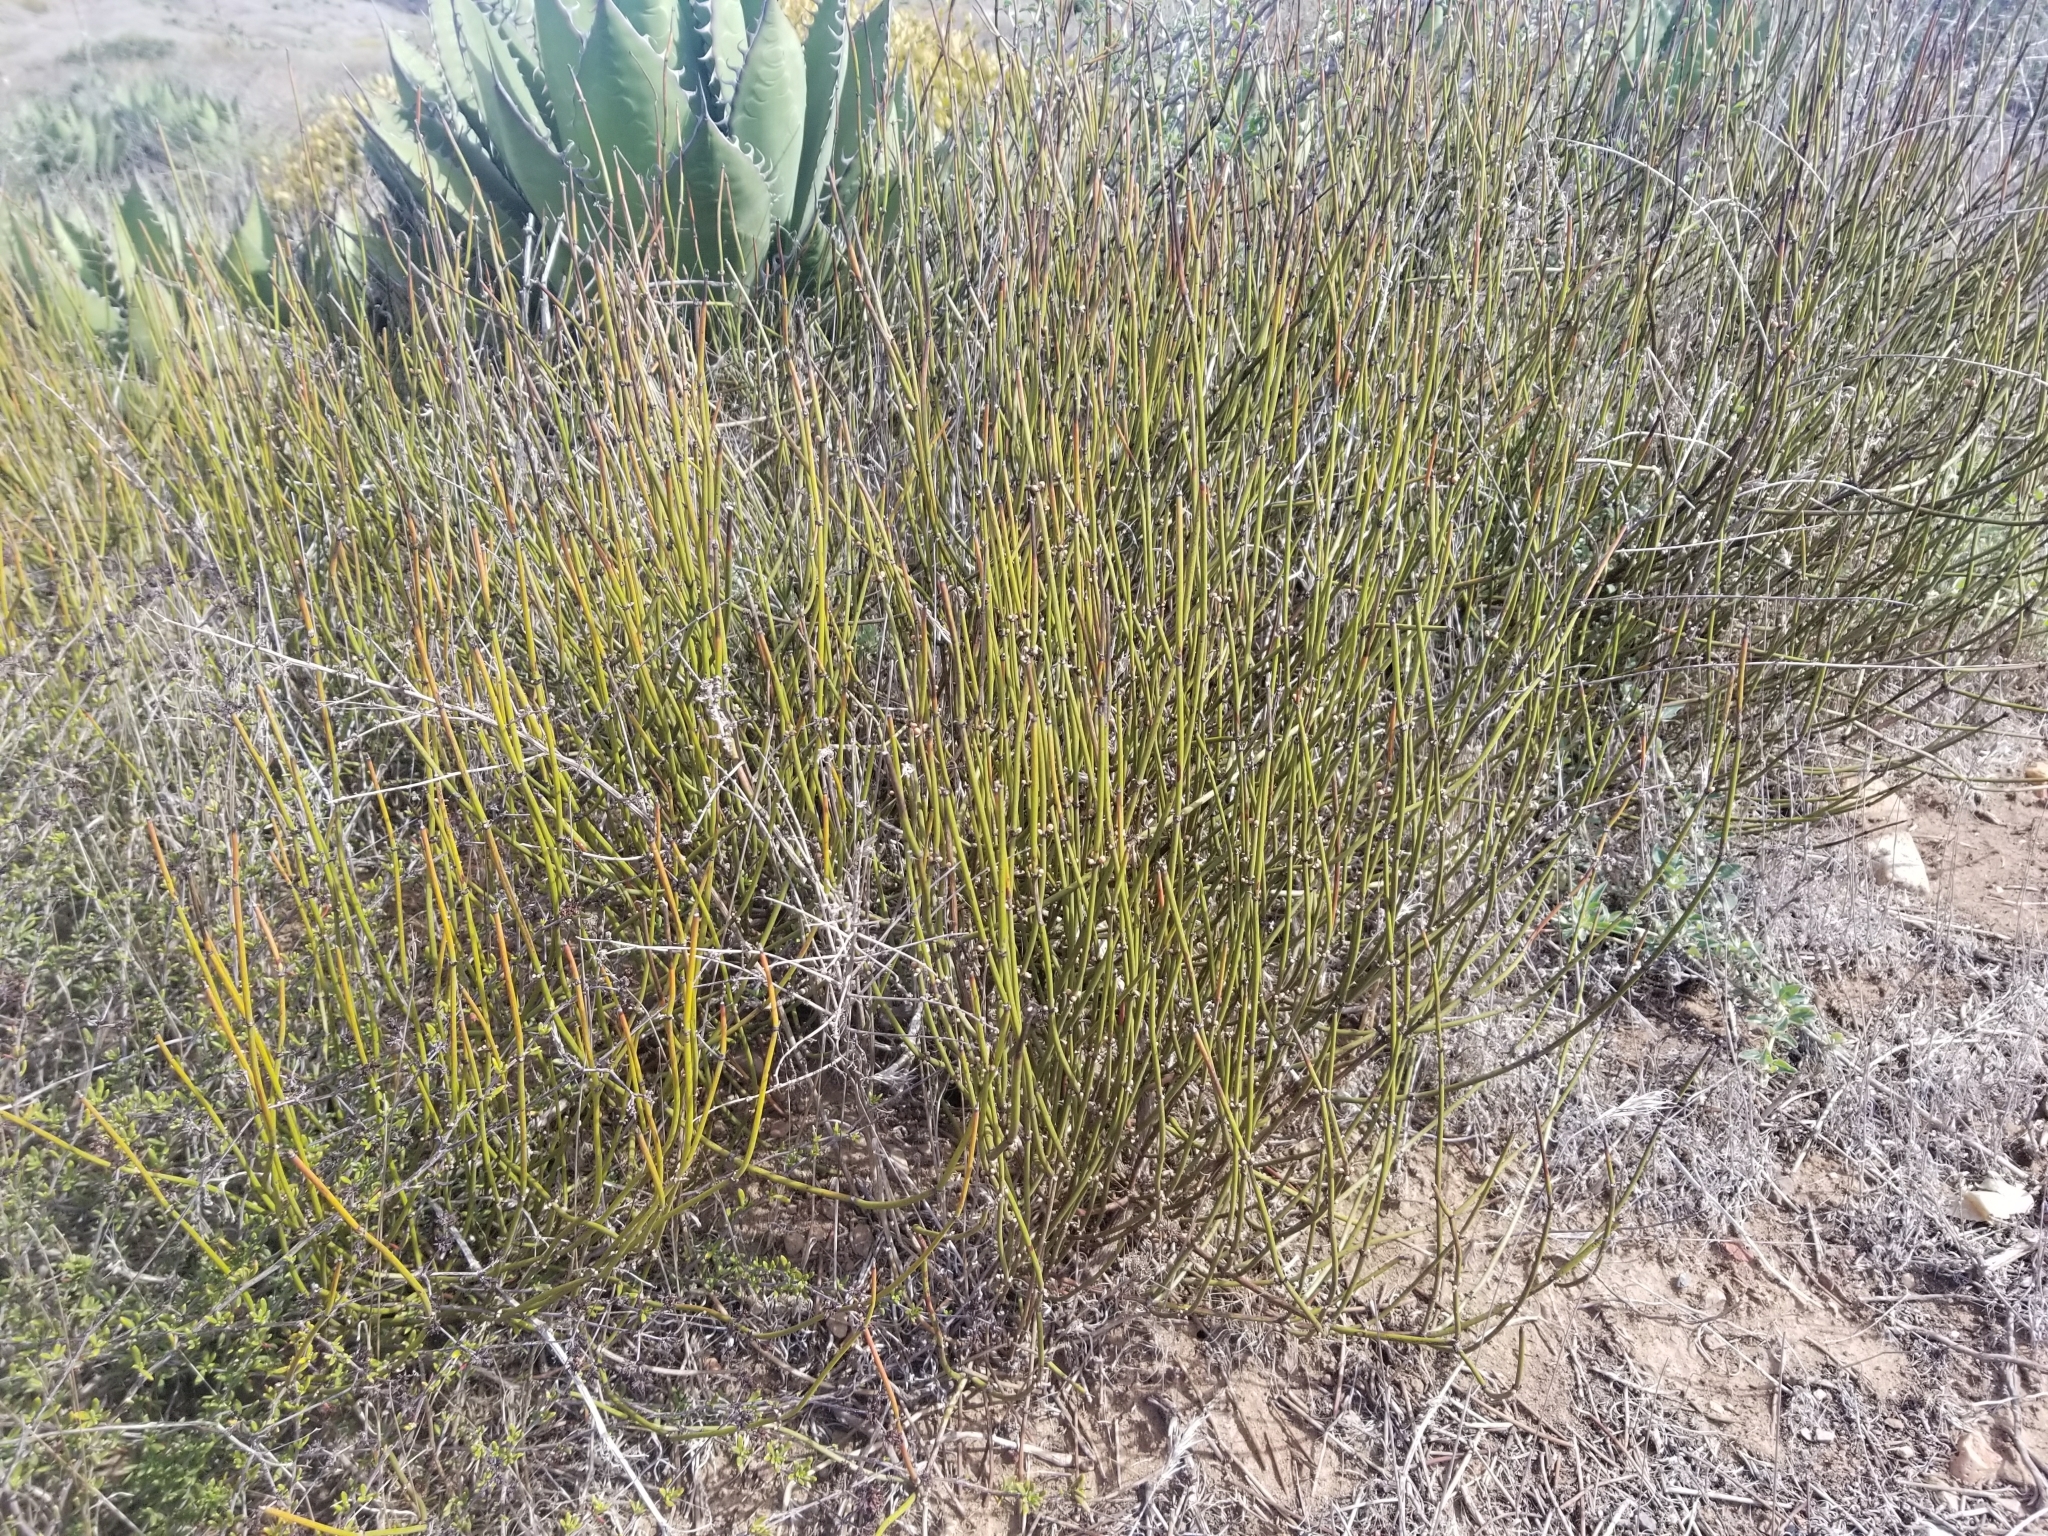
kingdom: Plantae
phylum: Tracheophyta
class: Gnetopsida
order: Ephedrales
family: Ephedraceae
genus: Ephedra
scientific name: Ephedra californica
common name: California ephedra
